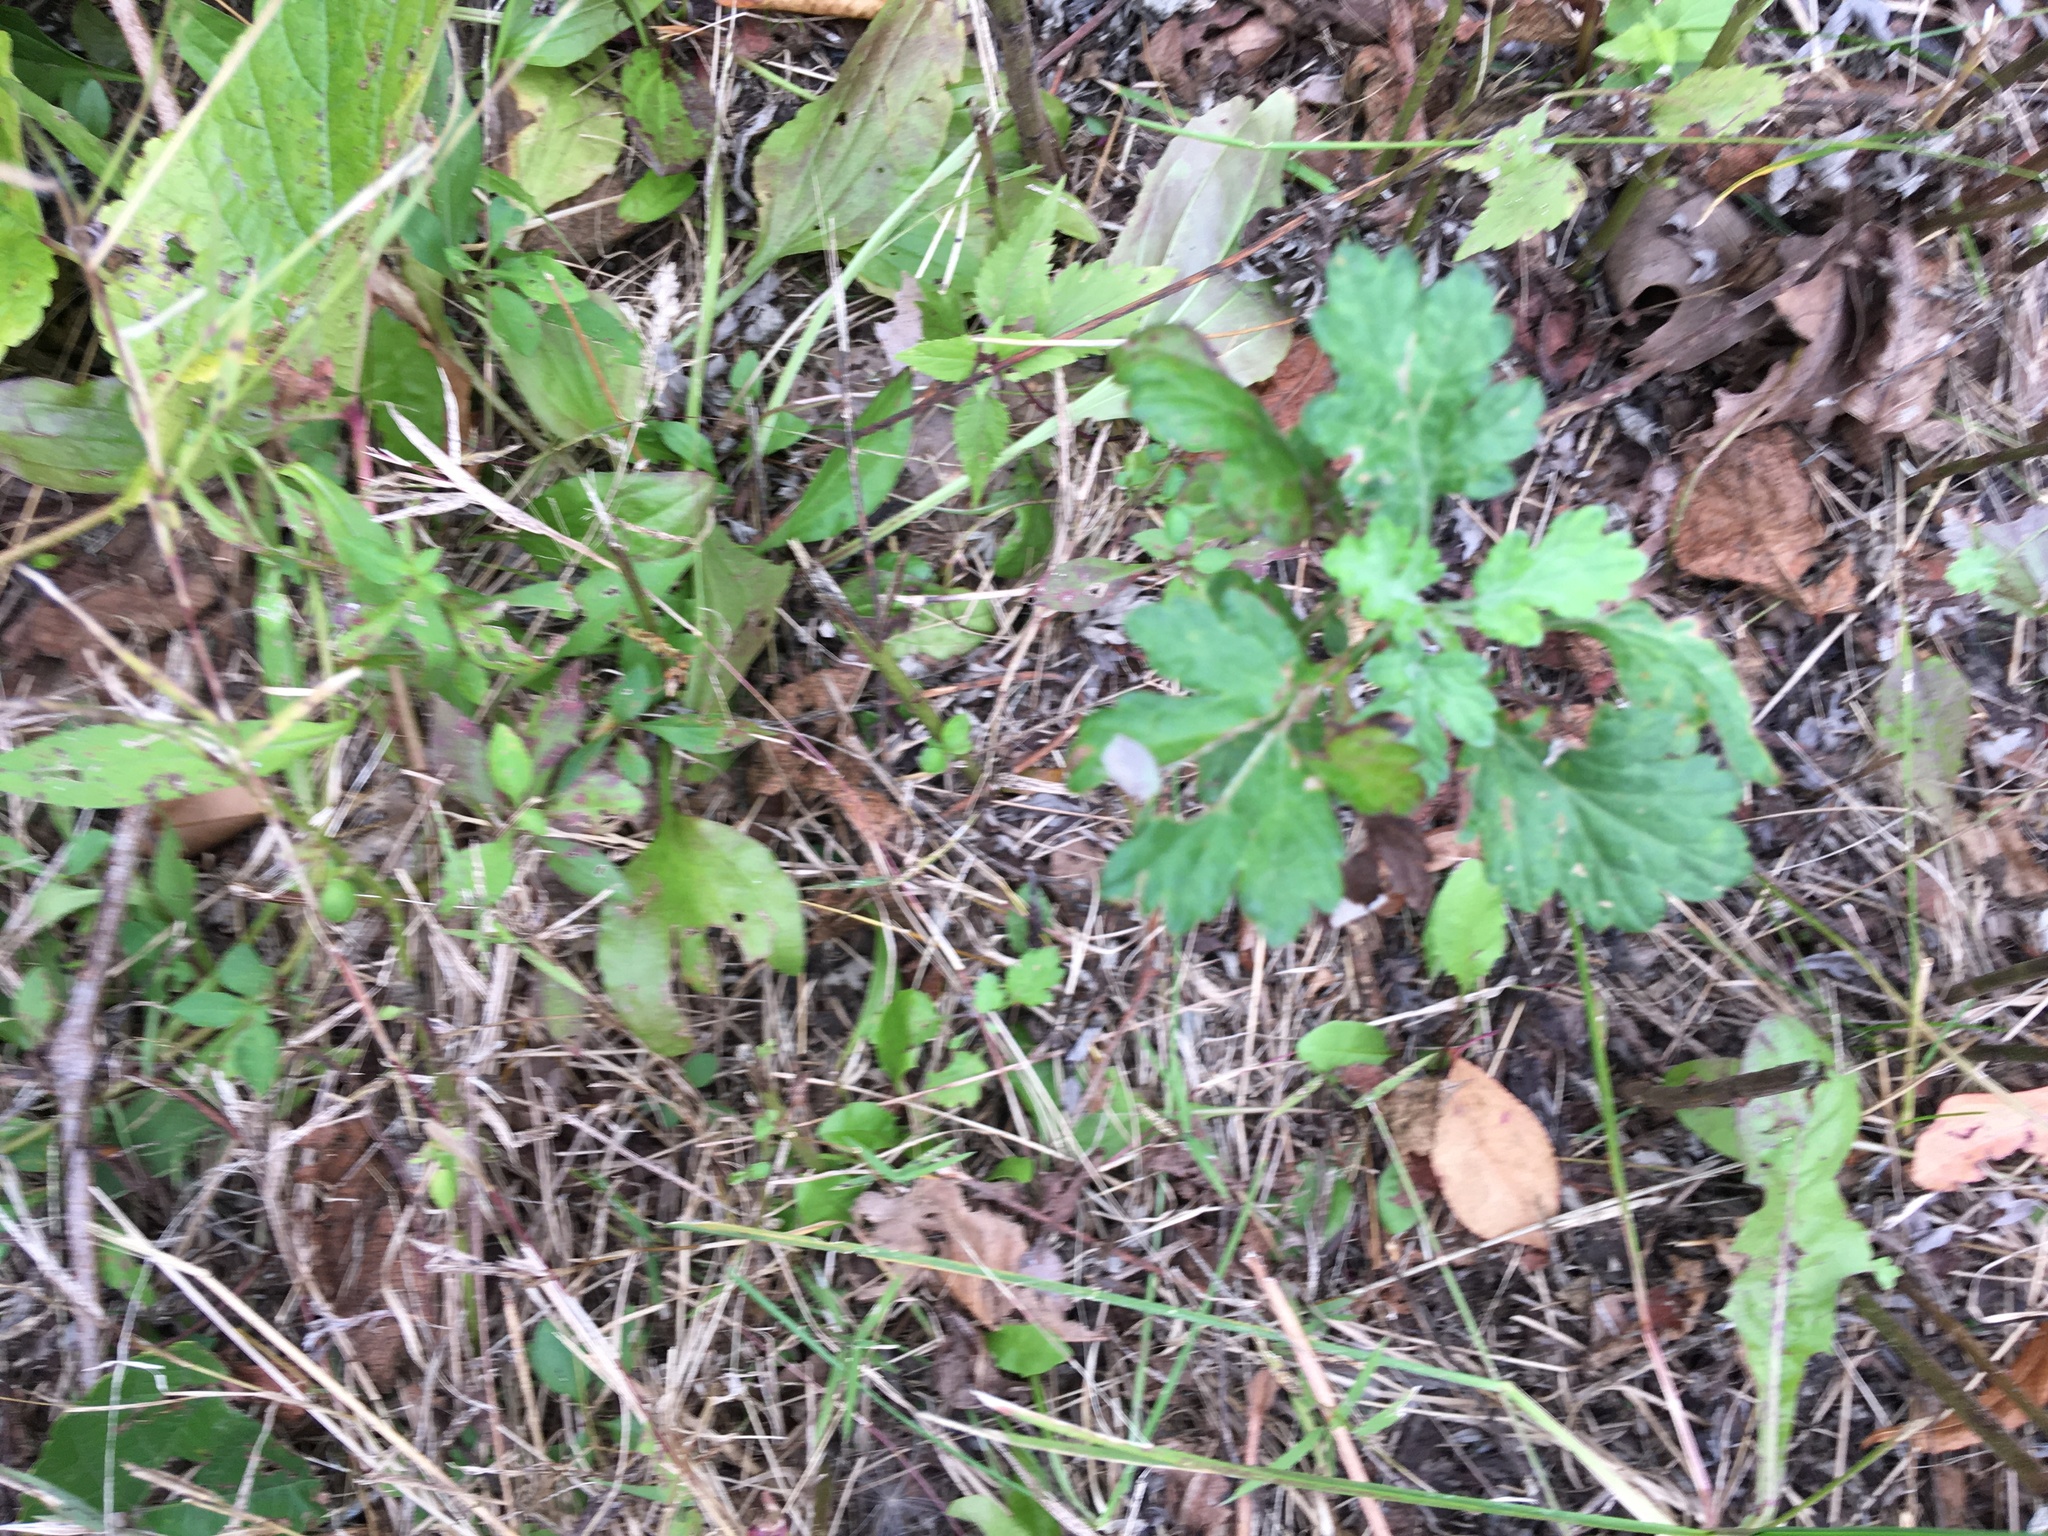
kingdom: Plantae
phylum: Tracheophyta
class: Magnoliopsida
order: Asterales
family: Asteraceae
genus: Artemisia
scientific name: Artemisia vulgaris
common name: Mugwort
